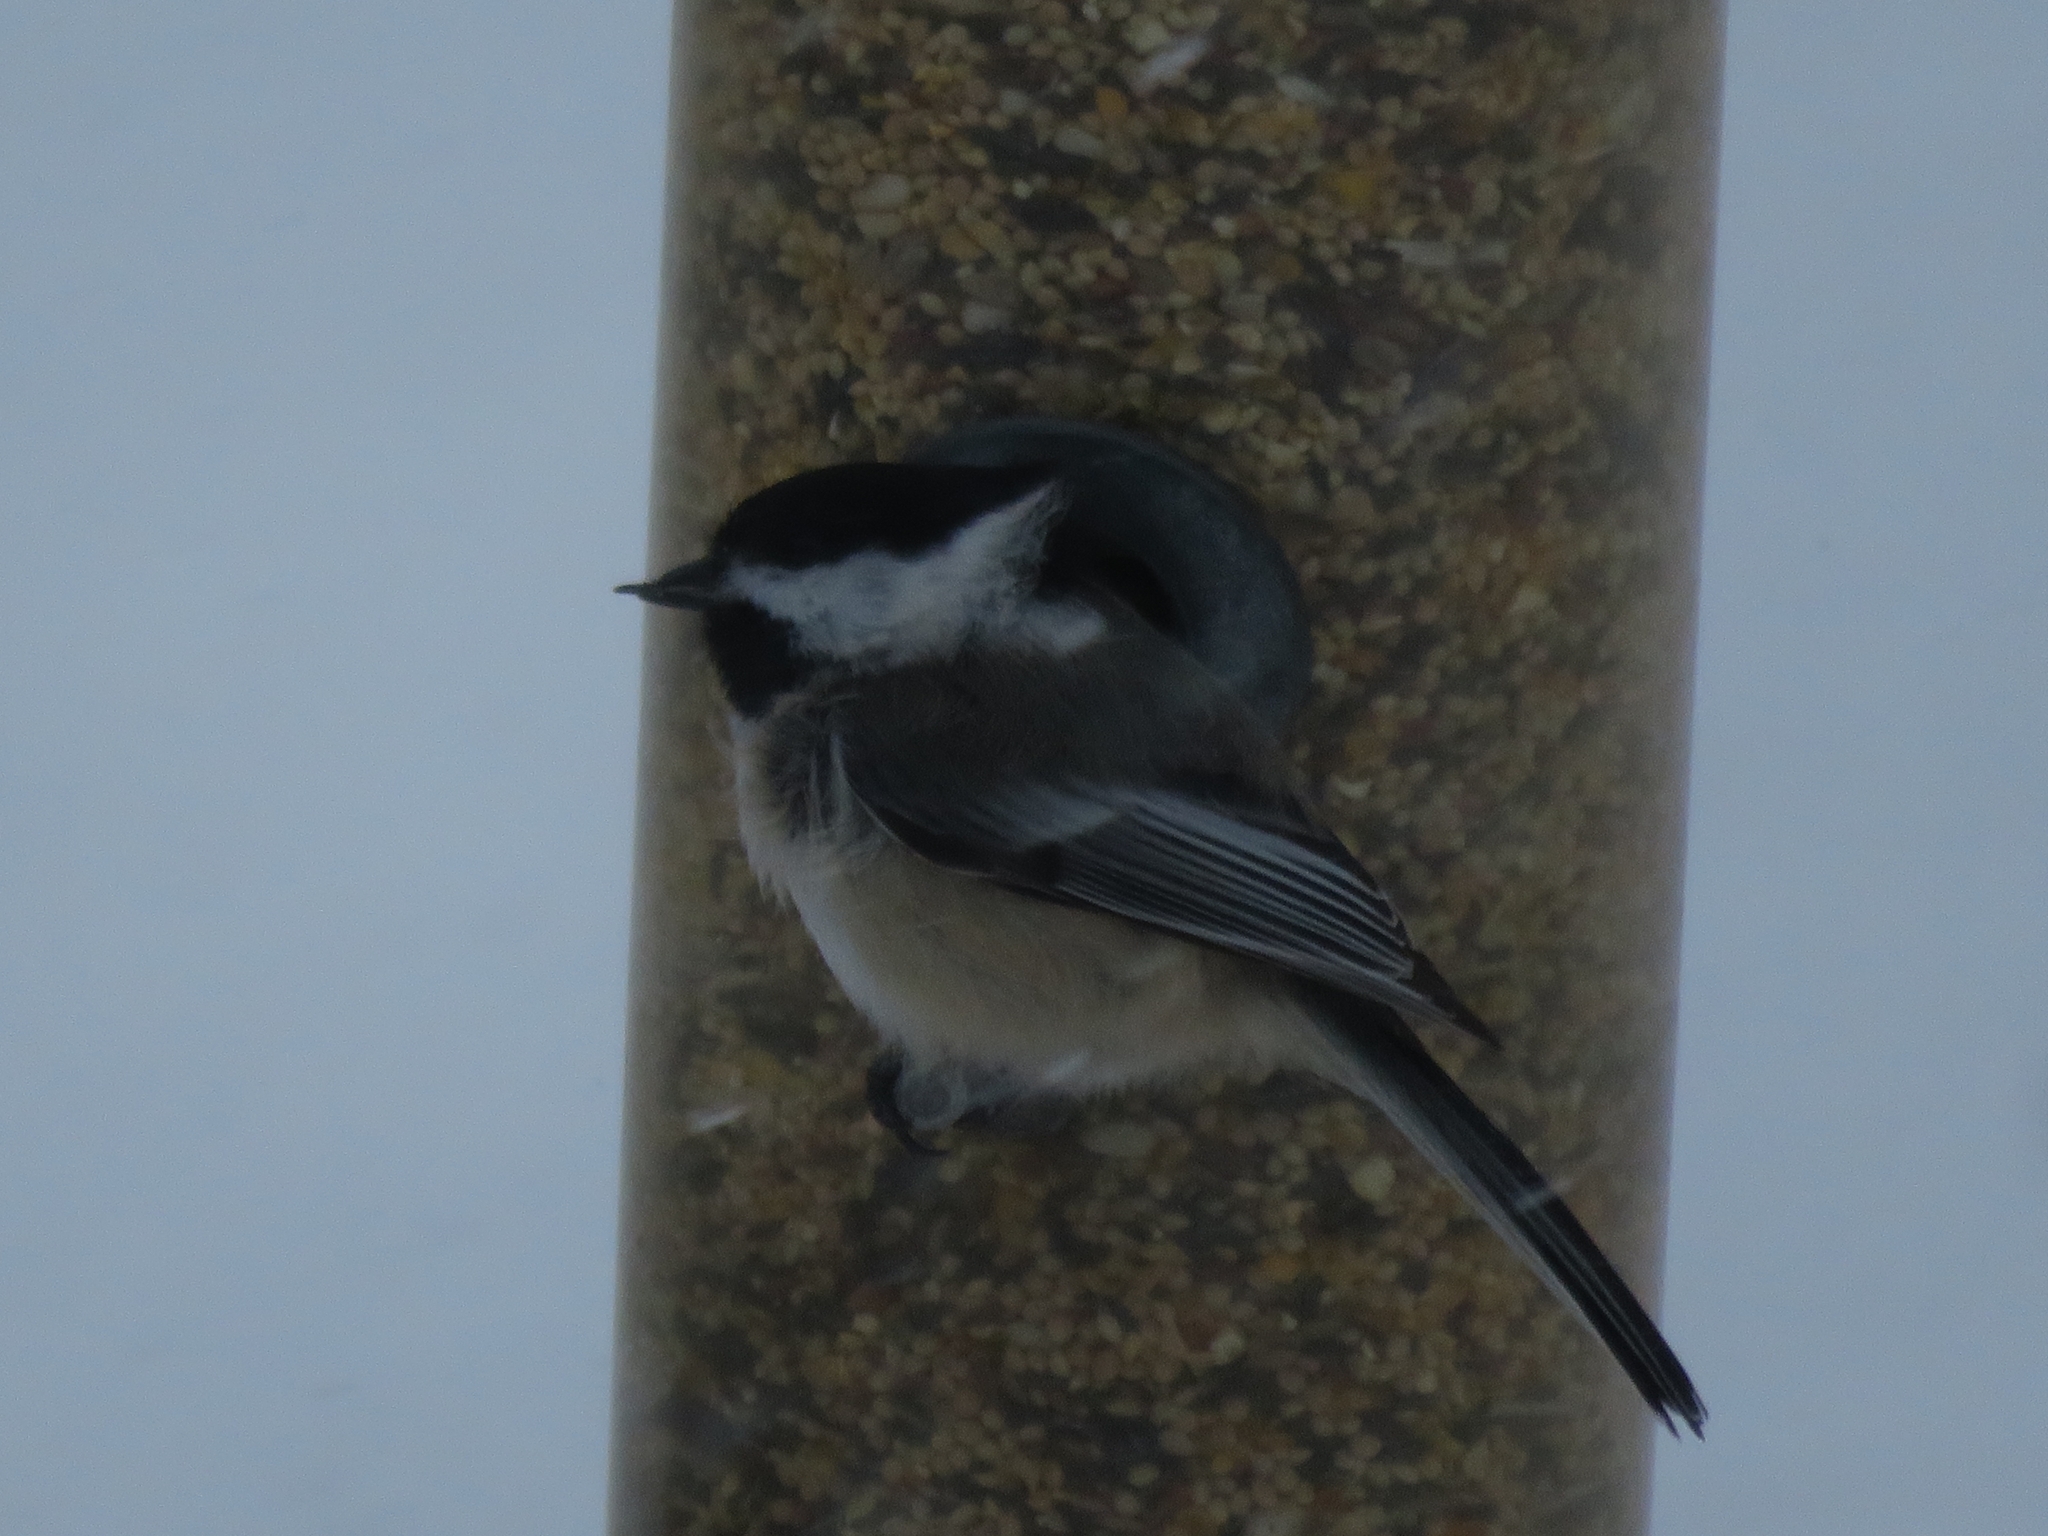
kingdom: Animalia
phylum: Chordata
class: Aves
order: Passeriformes
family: Paridae
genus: Poecile
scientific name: Poecile atricapillus
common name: Black-capped chickadee
